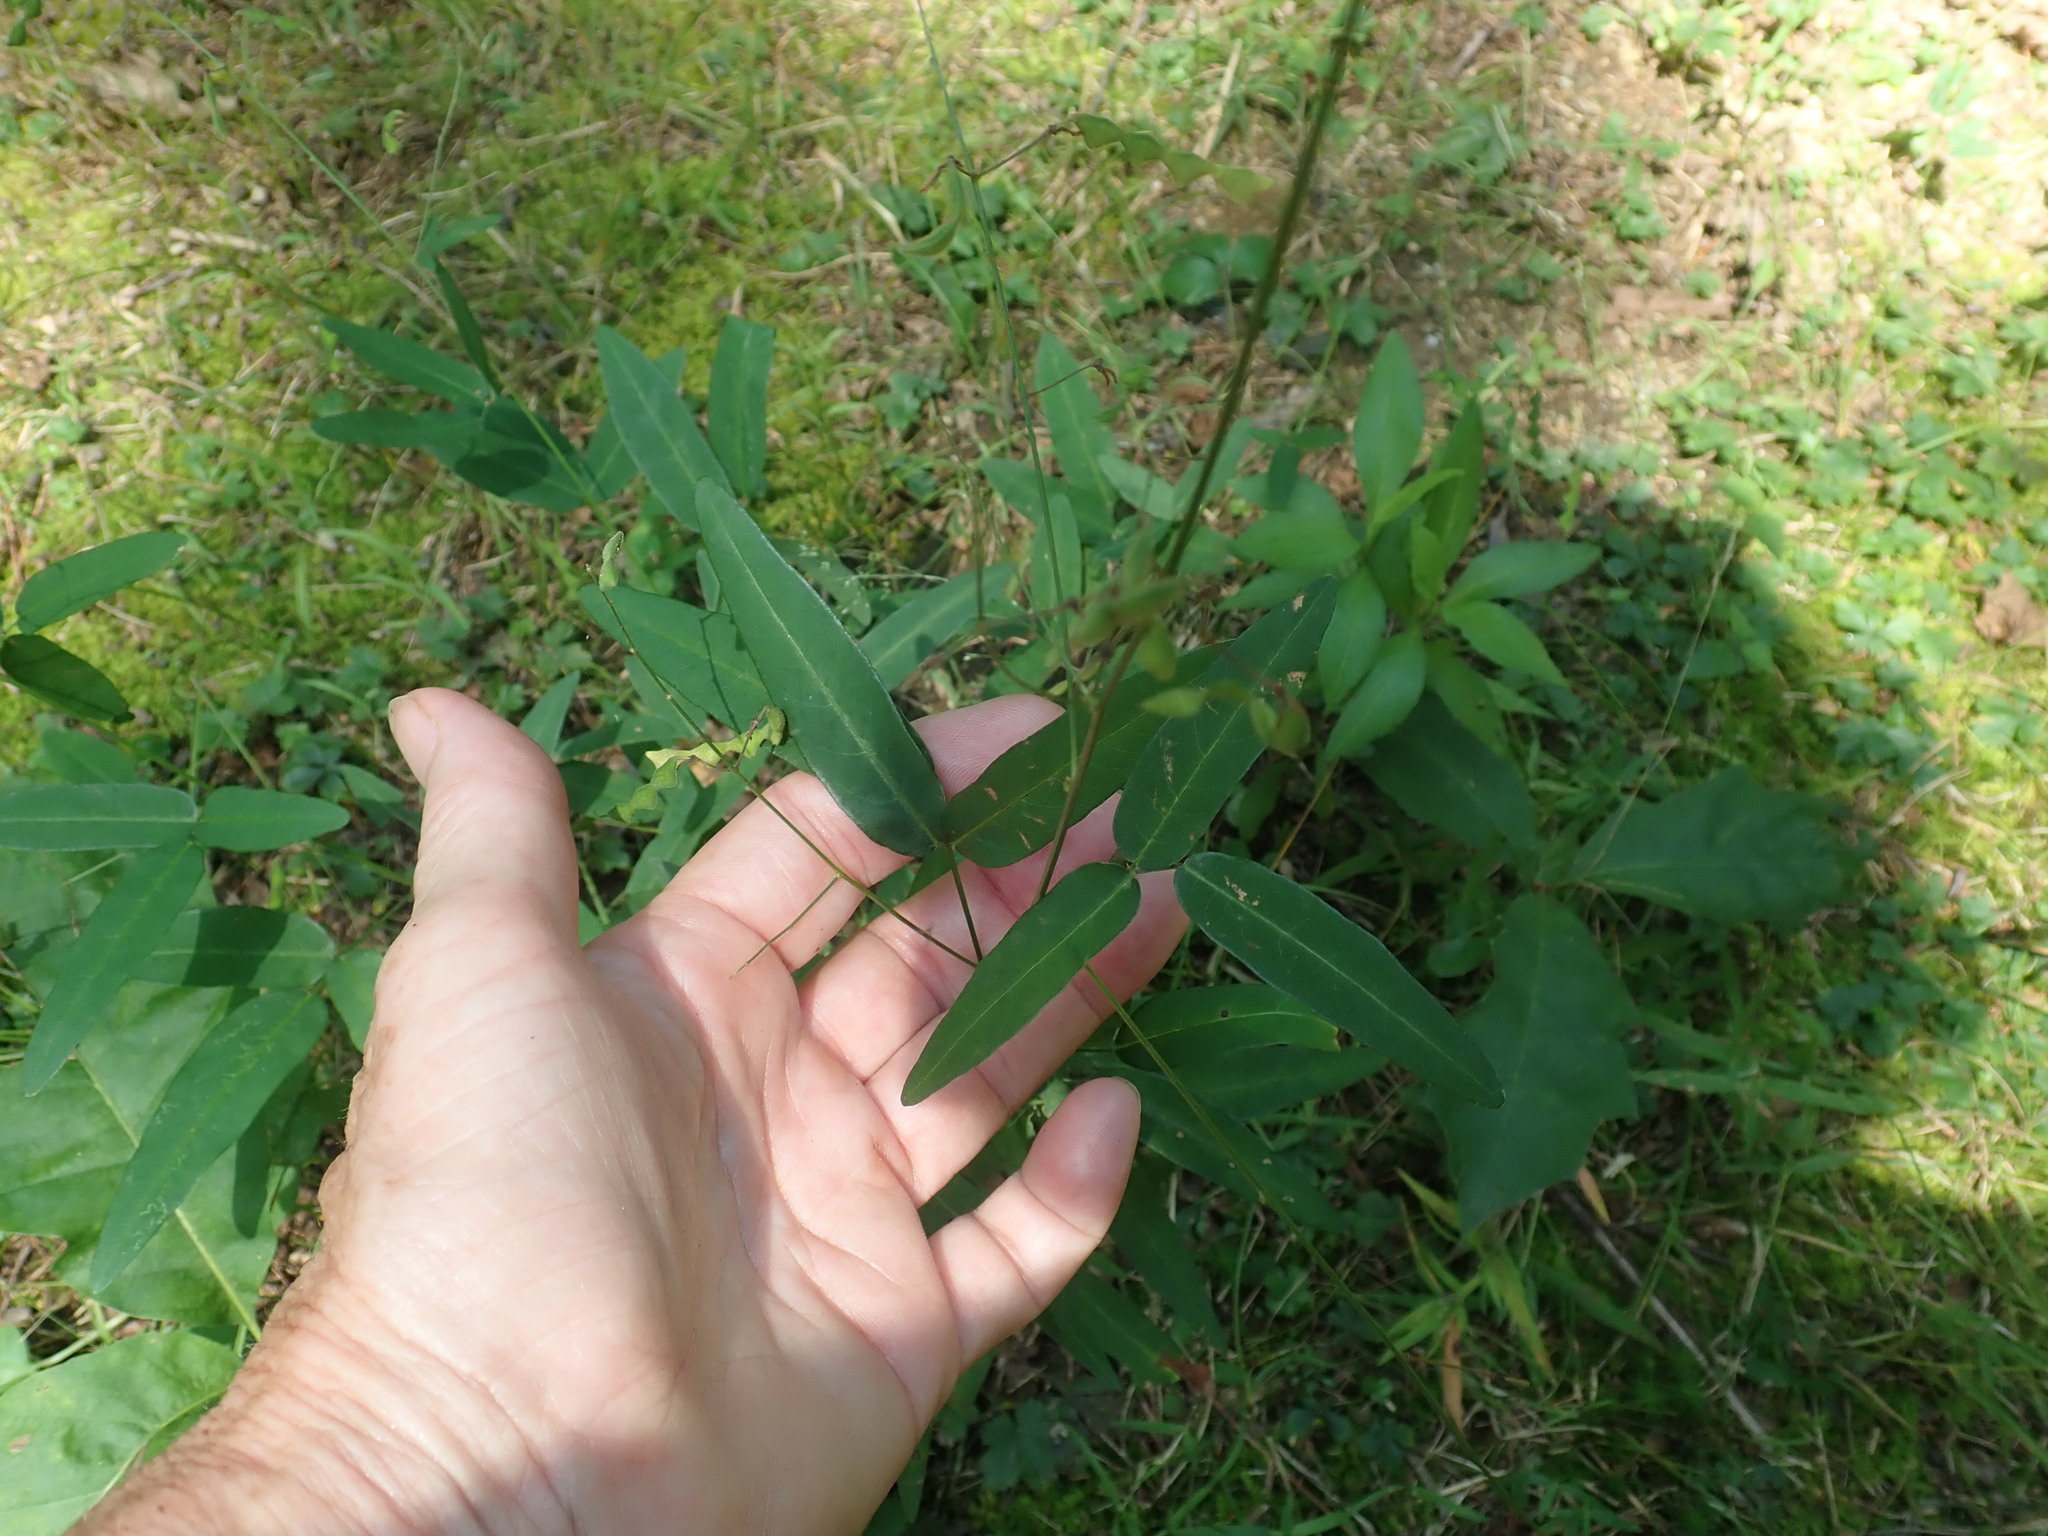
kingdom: Plantae
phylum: Tracheophyta
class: Magnoliopsida
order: Fabales
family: Fabaceae
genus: Desmodium
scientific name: Desmodium paniculatum
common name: Panicled tick-clover
